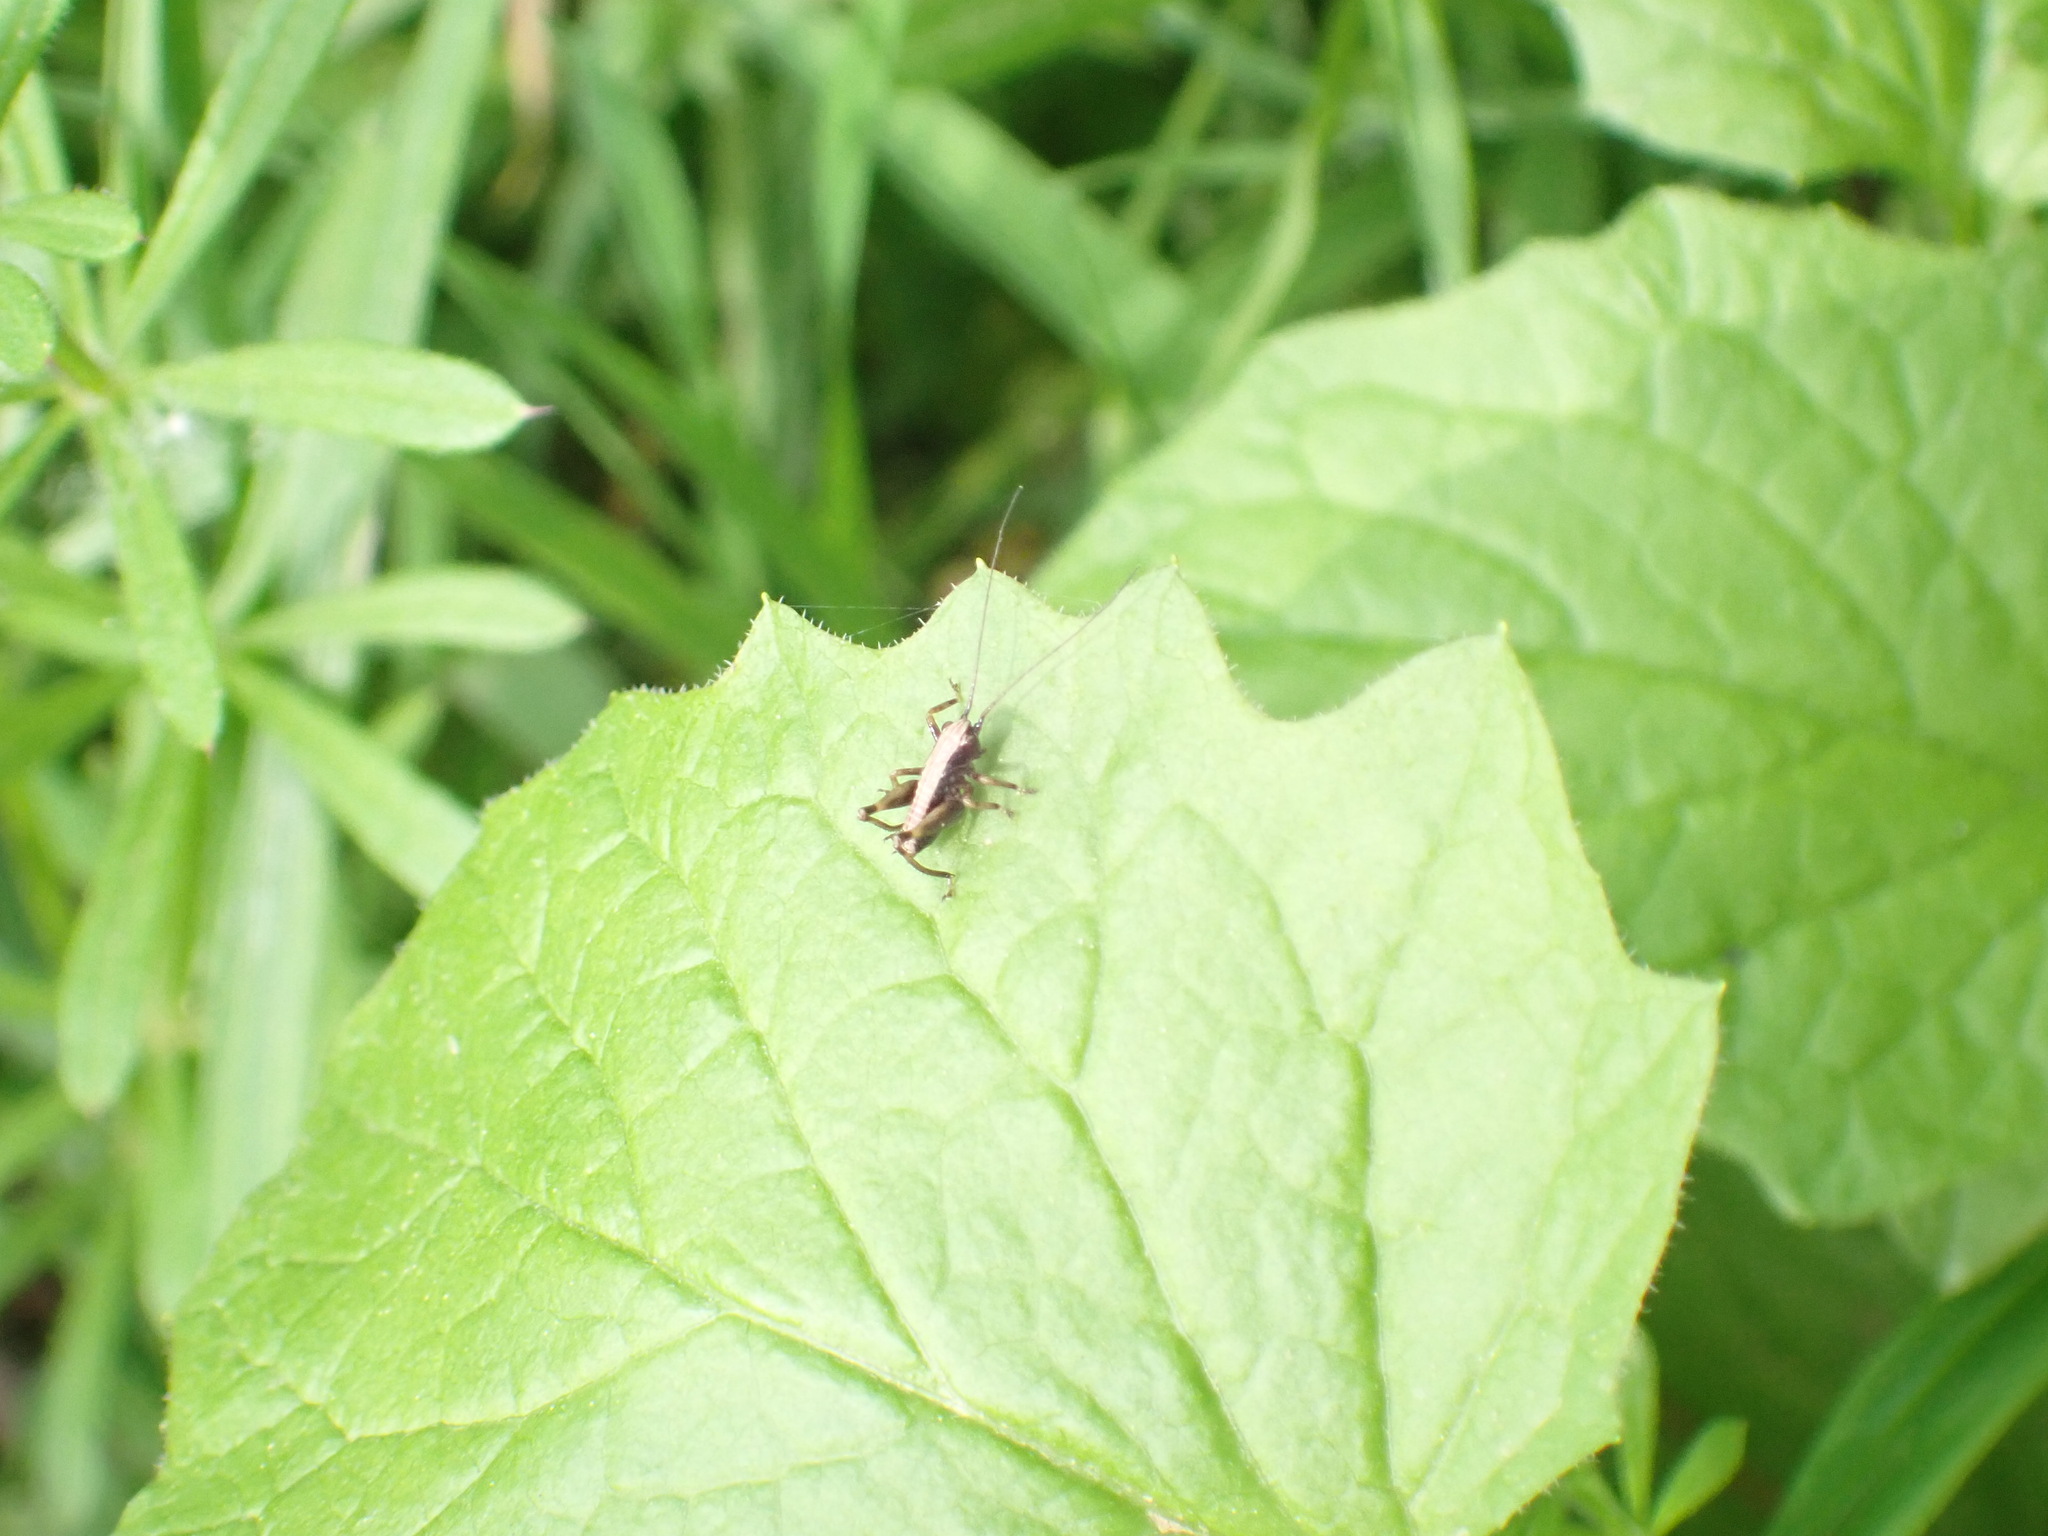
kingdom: Animalia
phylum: Arthropoda
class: Insecta
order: Orthoptera
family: Tettigoniidae
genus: Pholidoptera
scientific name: Pholidoptera griseoaptera
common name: Dark bush-cricket
